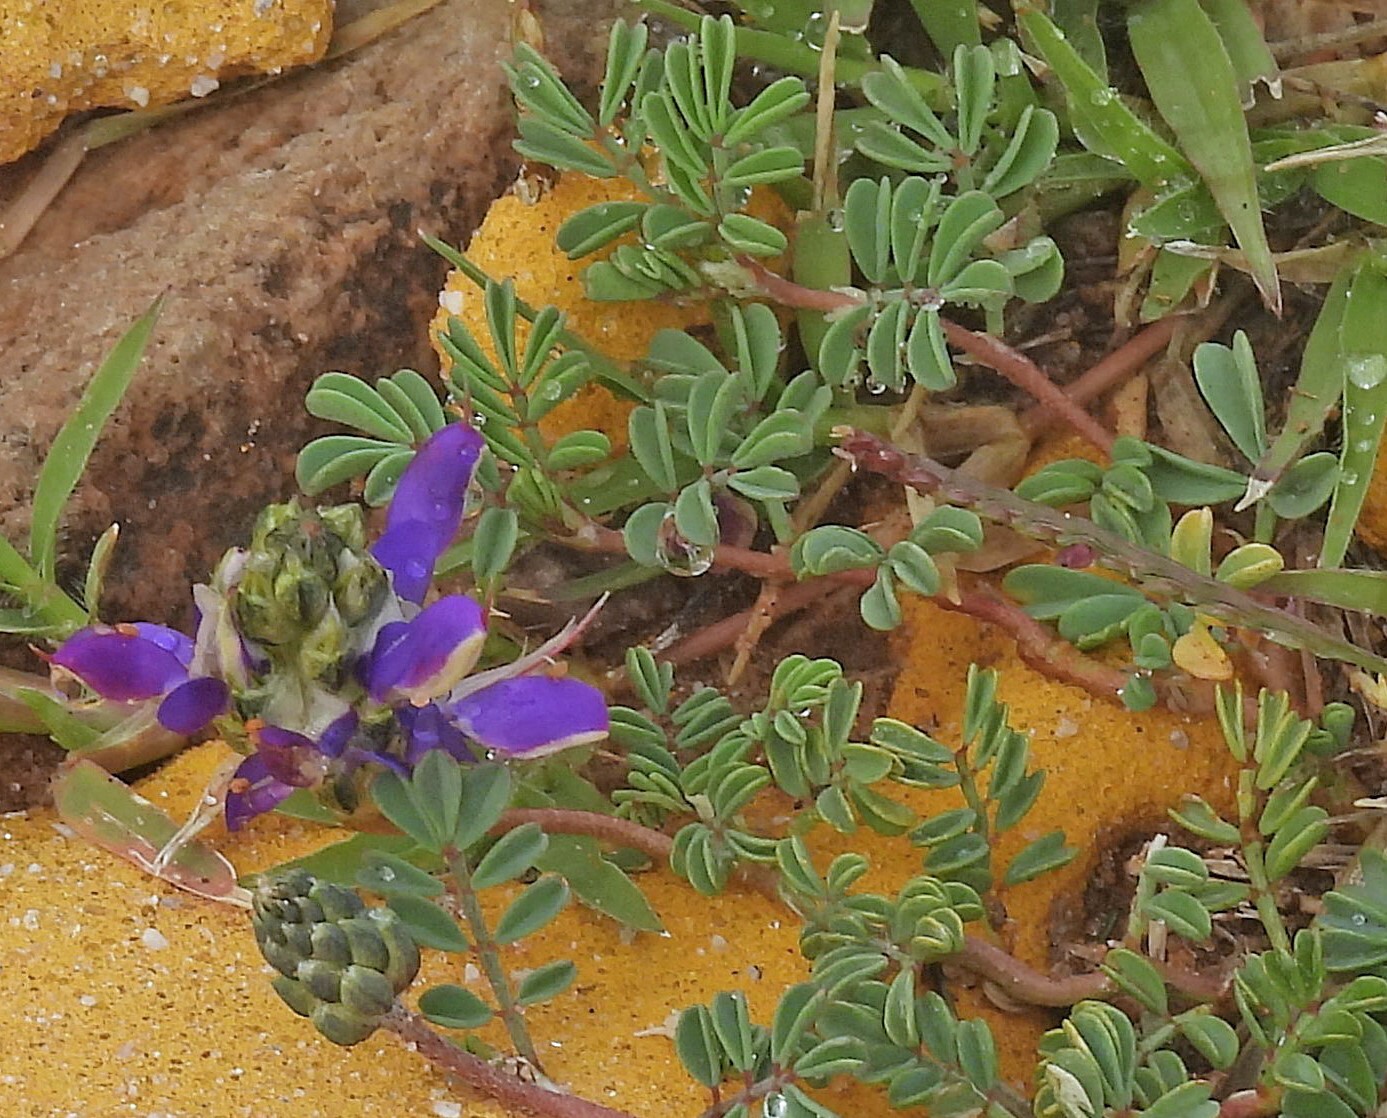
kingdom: Plantae
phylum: Tracheophyta
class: Magnoliopsida
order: Fabales
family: Fabaceae
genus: Dalea
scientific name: Dalea boliviana
